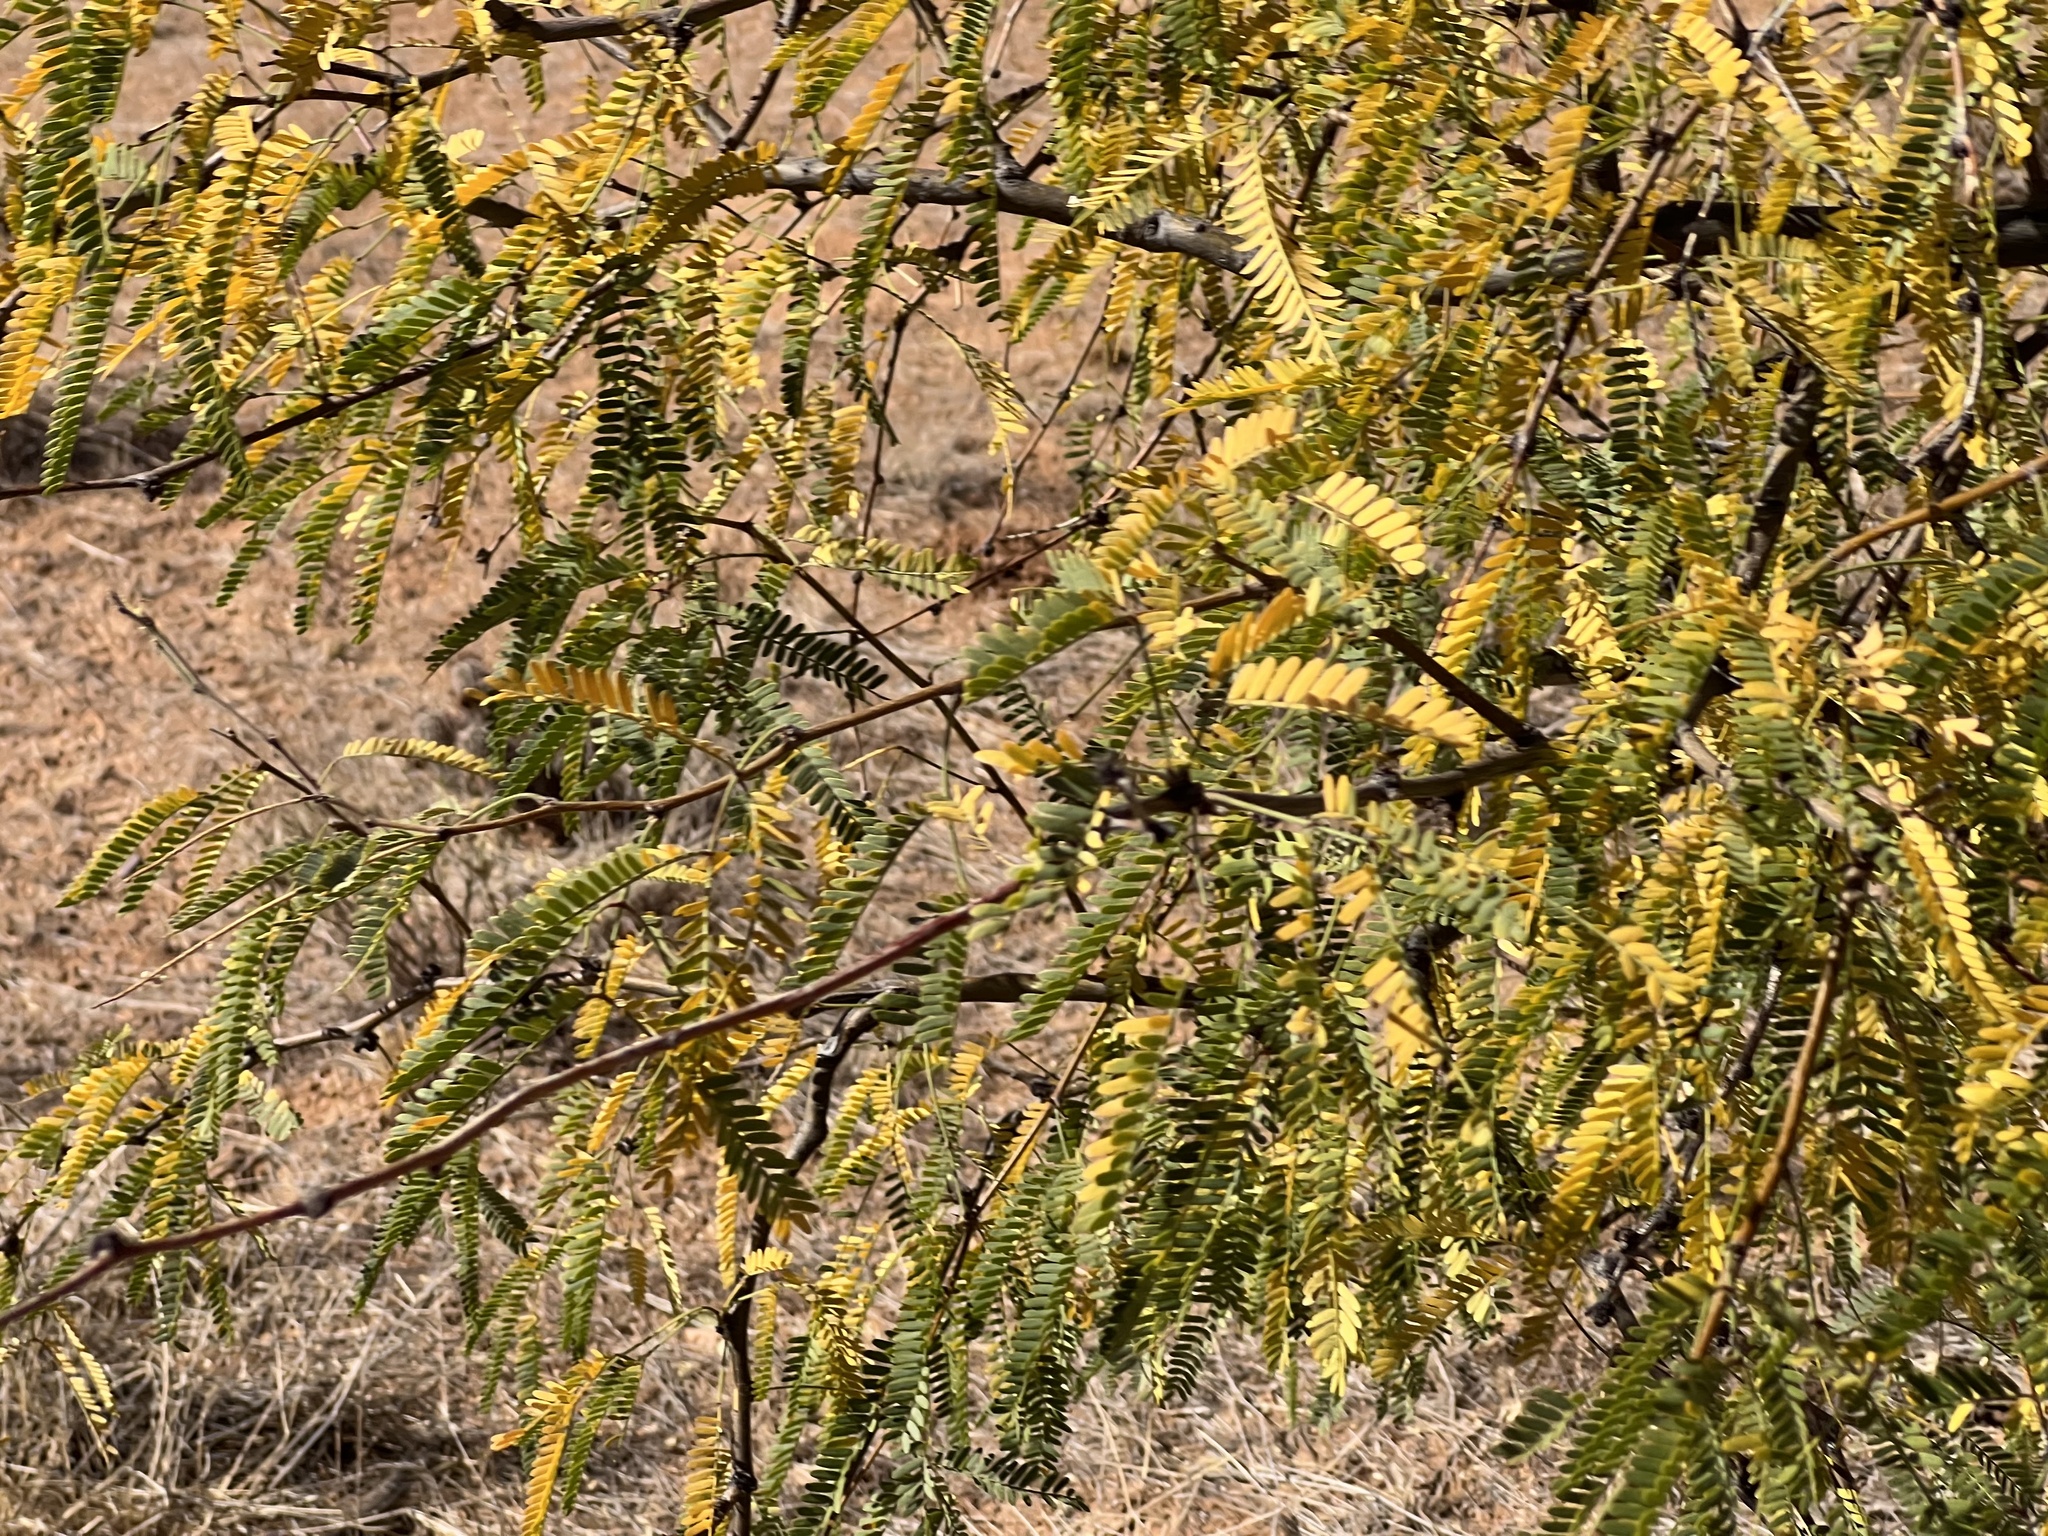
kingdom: Plantae
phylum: Tracheophyta
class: Magnoliopsida
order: Fabales
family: Fabaceae
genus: Prosopis
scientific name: Prosopis velutina
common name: Velvet mesquite
